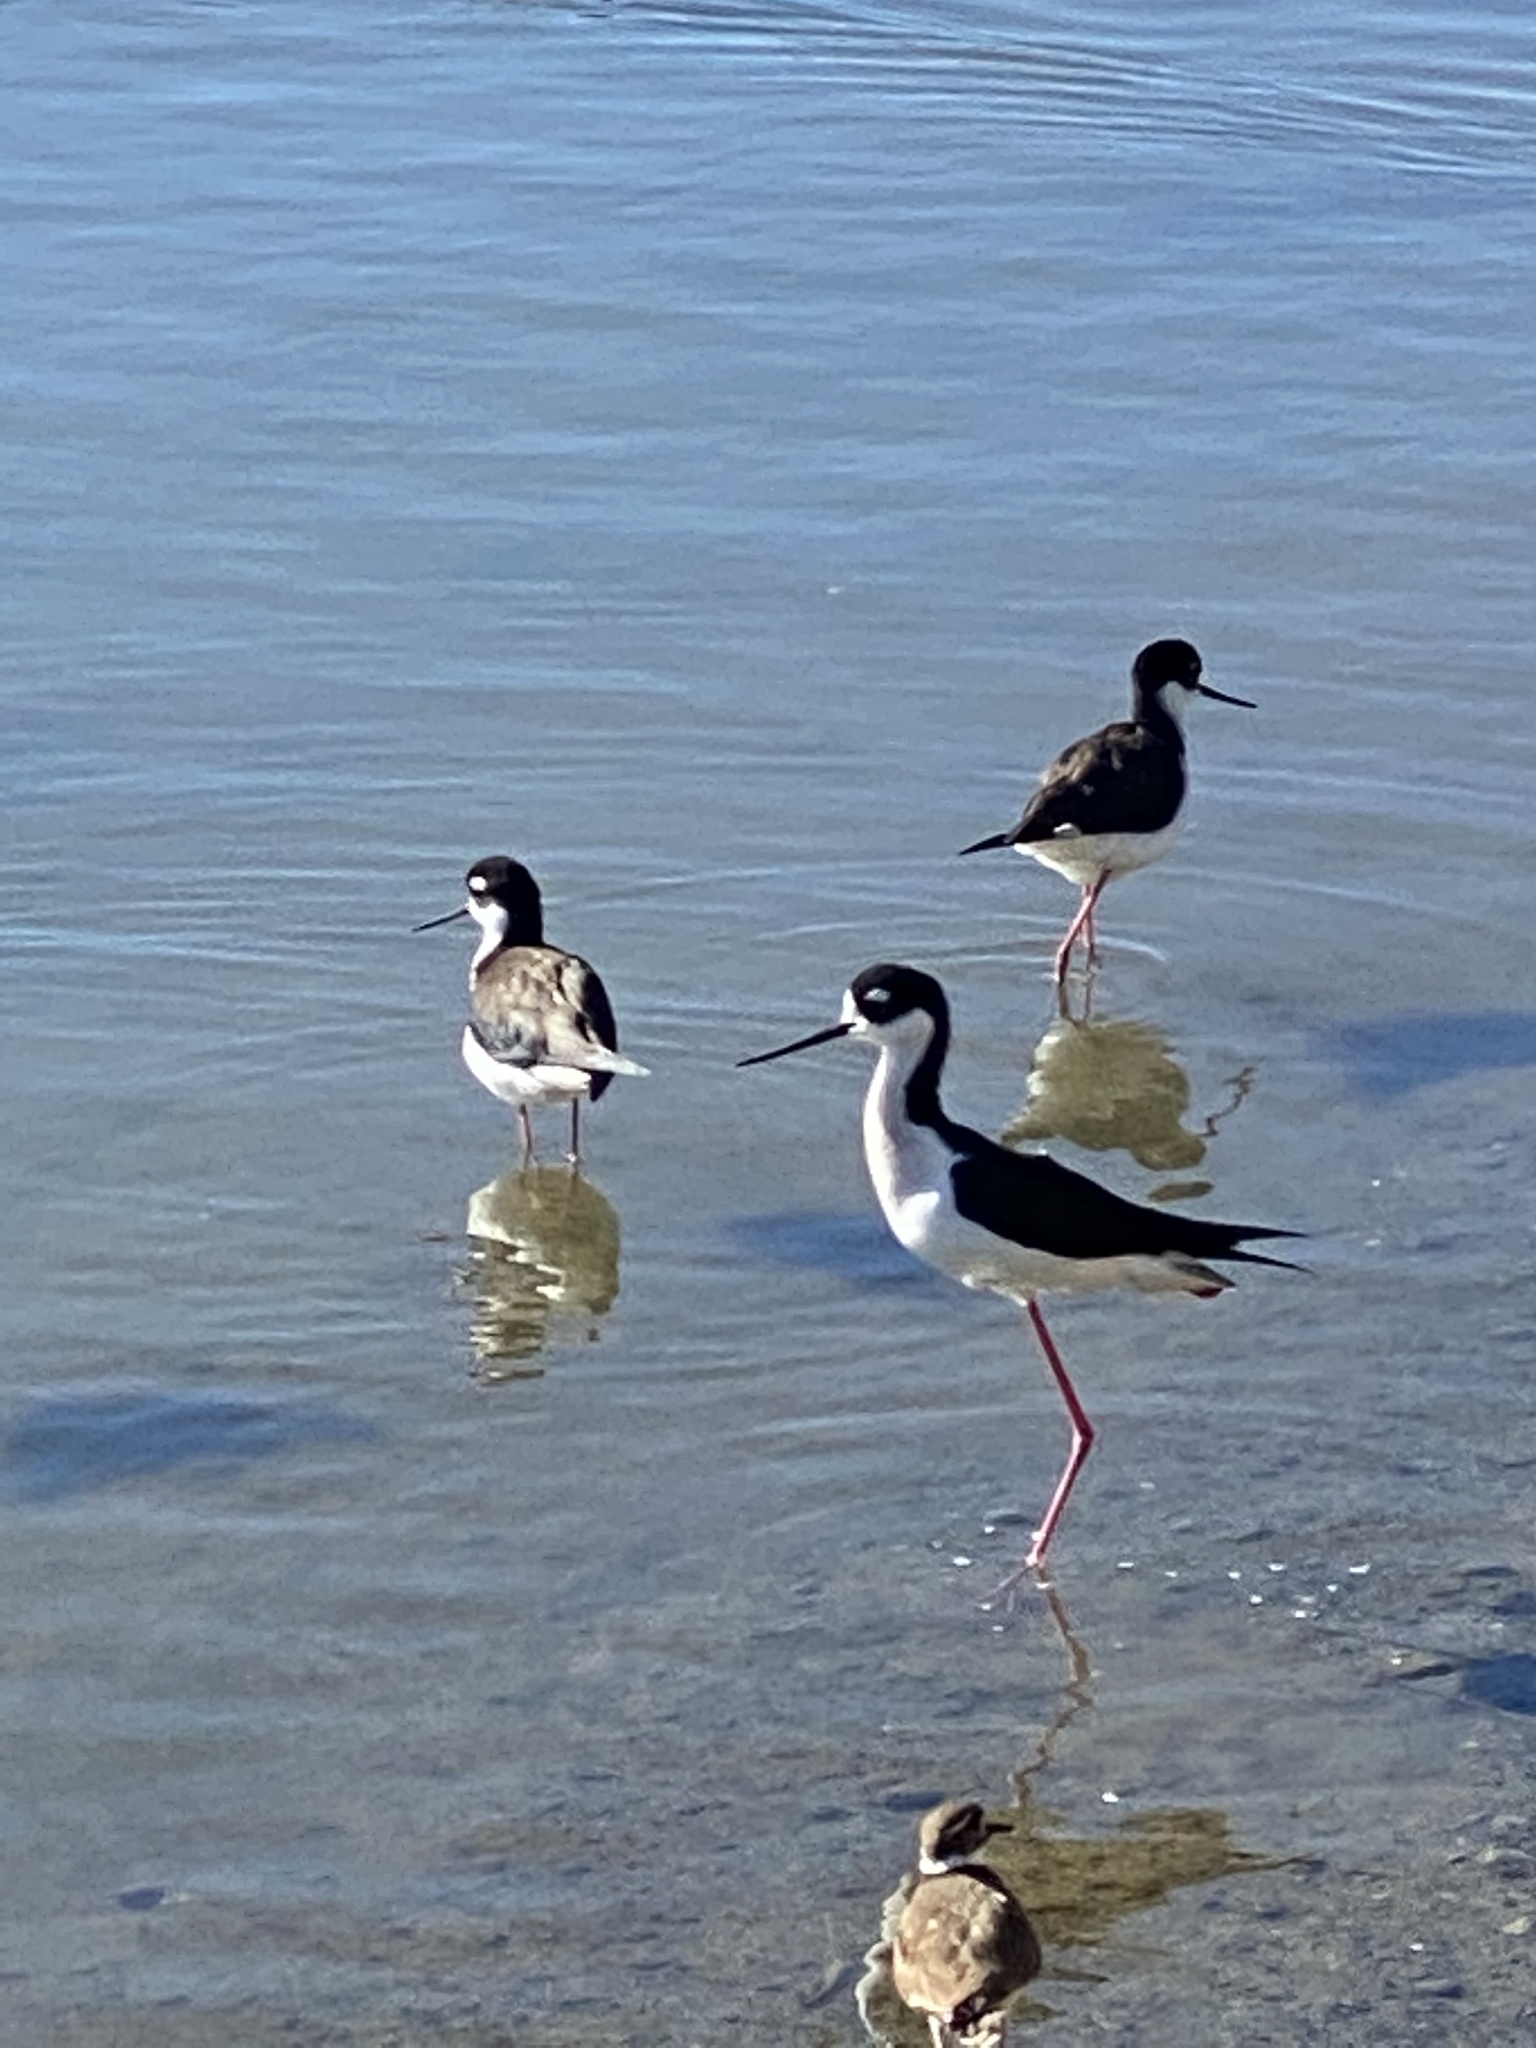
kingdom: Animalia
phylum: Chordata
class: Aves
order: Charadriiformes
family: Recurvirostridae
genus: Himantopus
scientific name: Himantopus mexicanus
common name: Black-necked stilt
